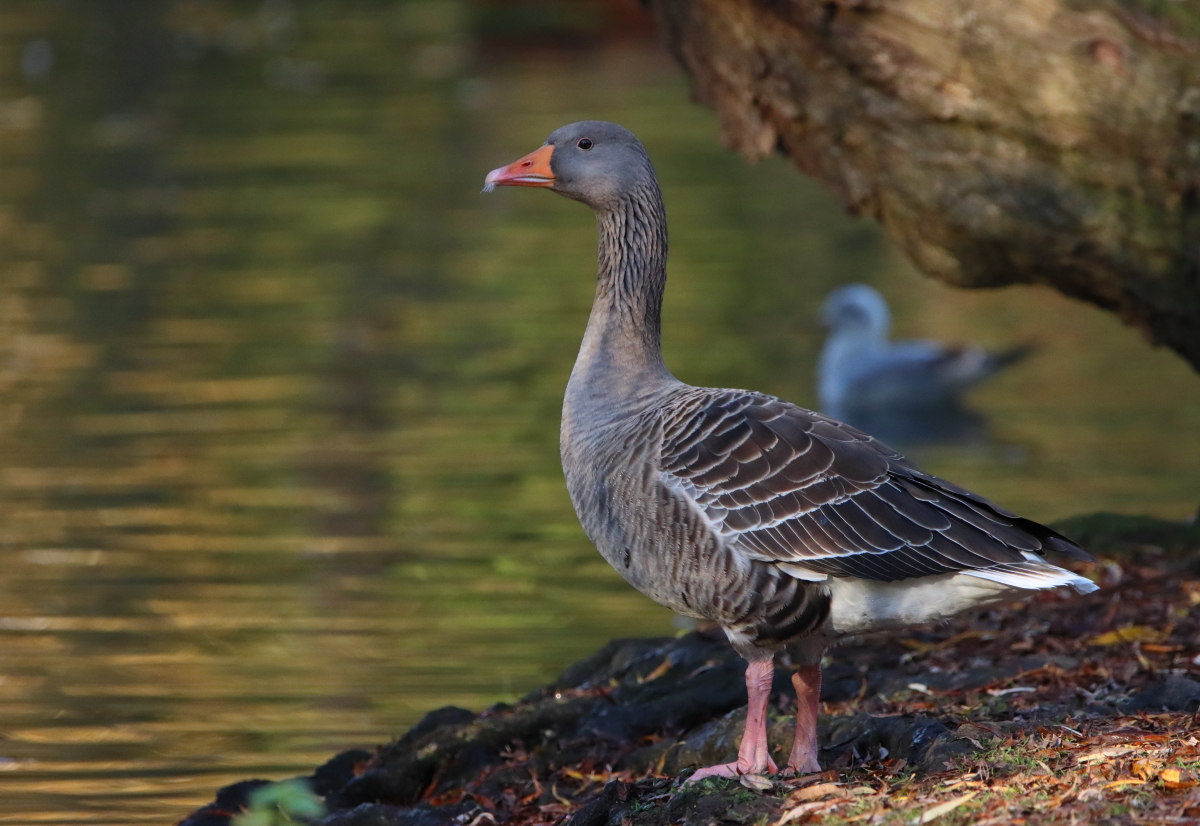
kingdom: Animalia
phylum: Chordata
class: Aves
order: Anseriformes
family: Anatidae
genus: Anser
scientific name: Anser anser
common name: Greylag goose
